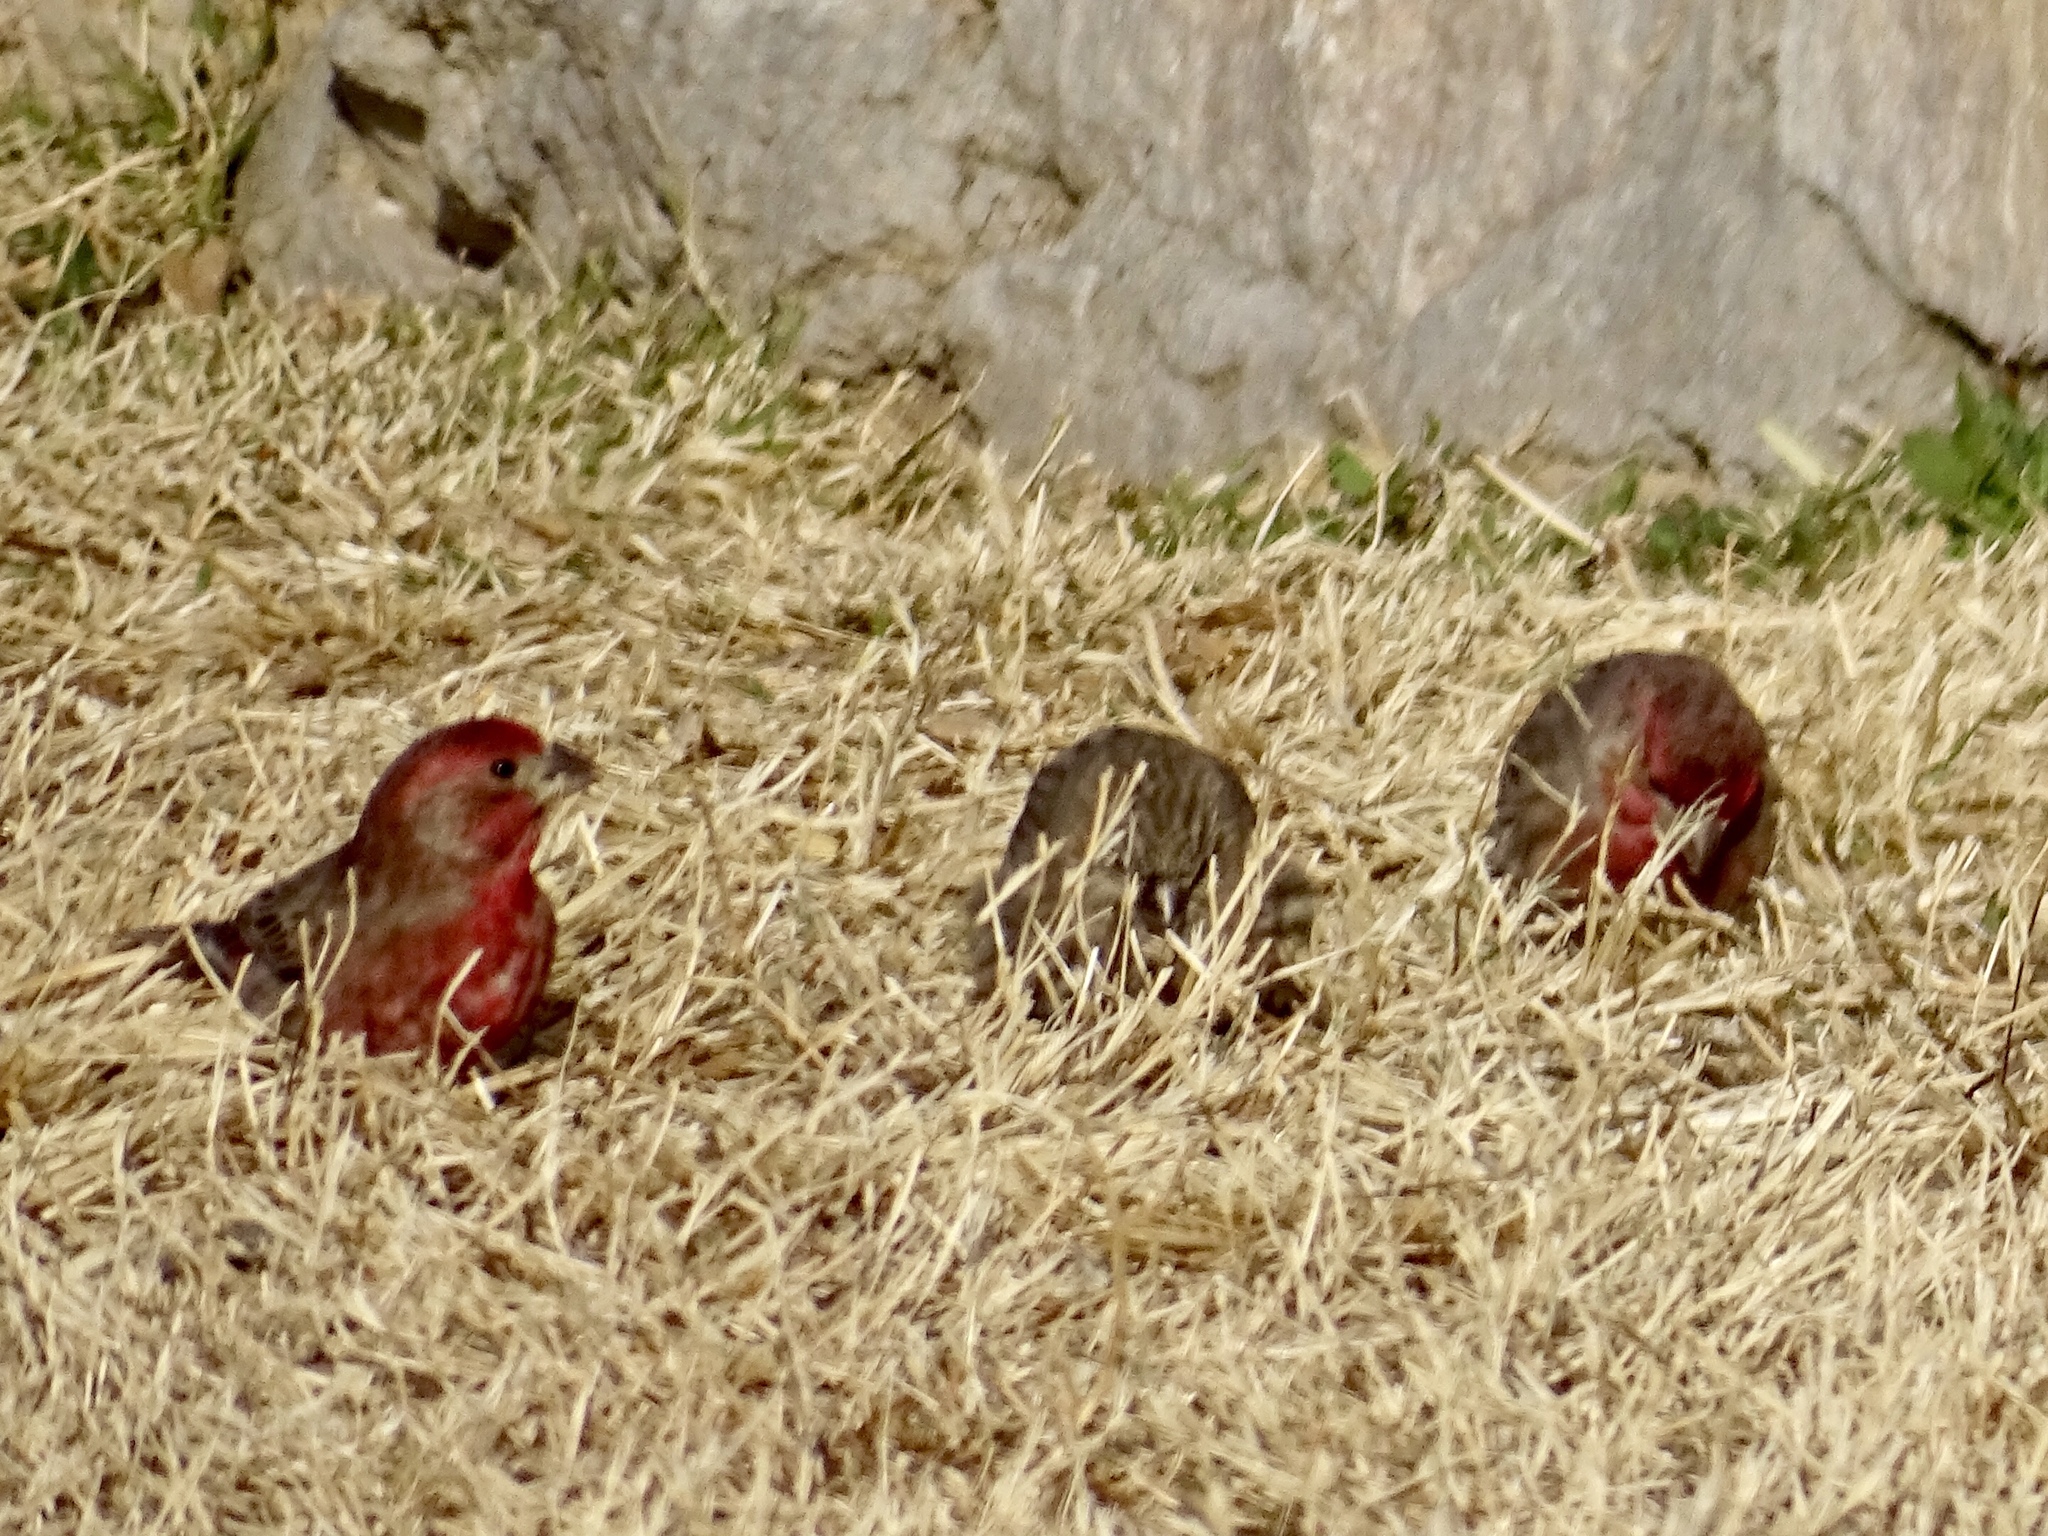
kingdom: Animalia
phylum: Chordata
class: Aves
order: Passeriformes
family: Fringillidae
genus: Haemorhous
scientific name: Haemorhous mexicanus
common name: House finch
